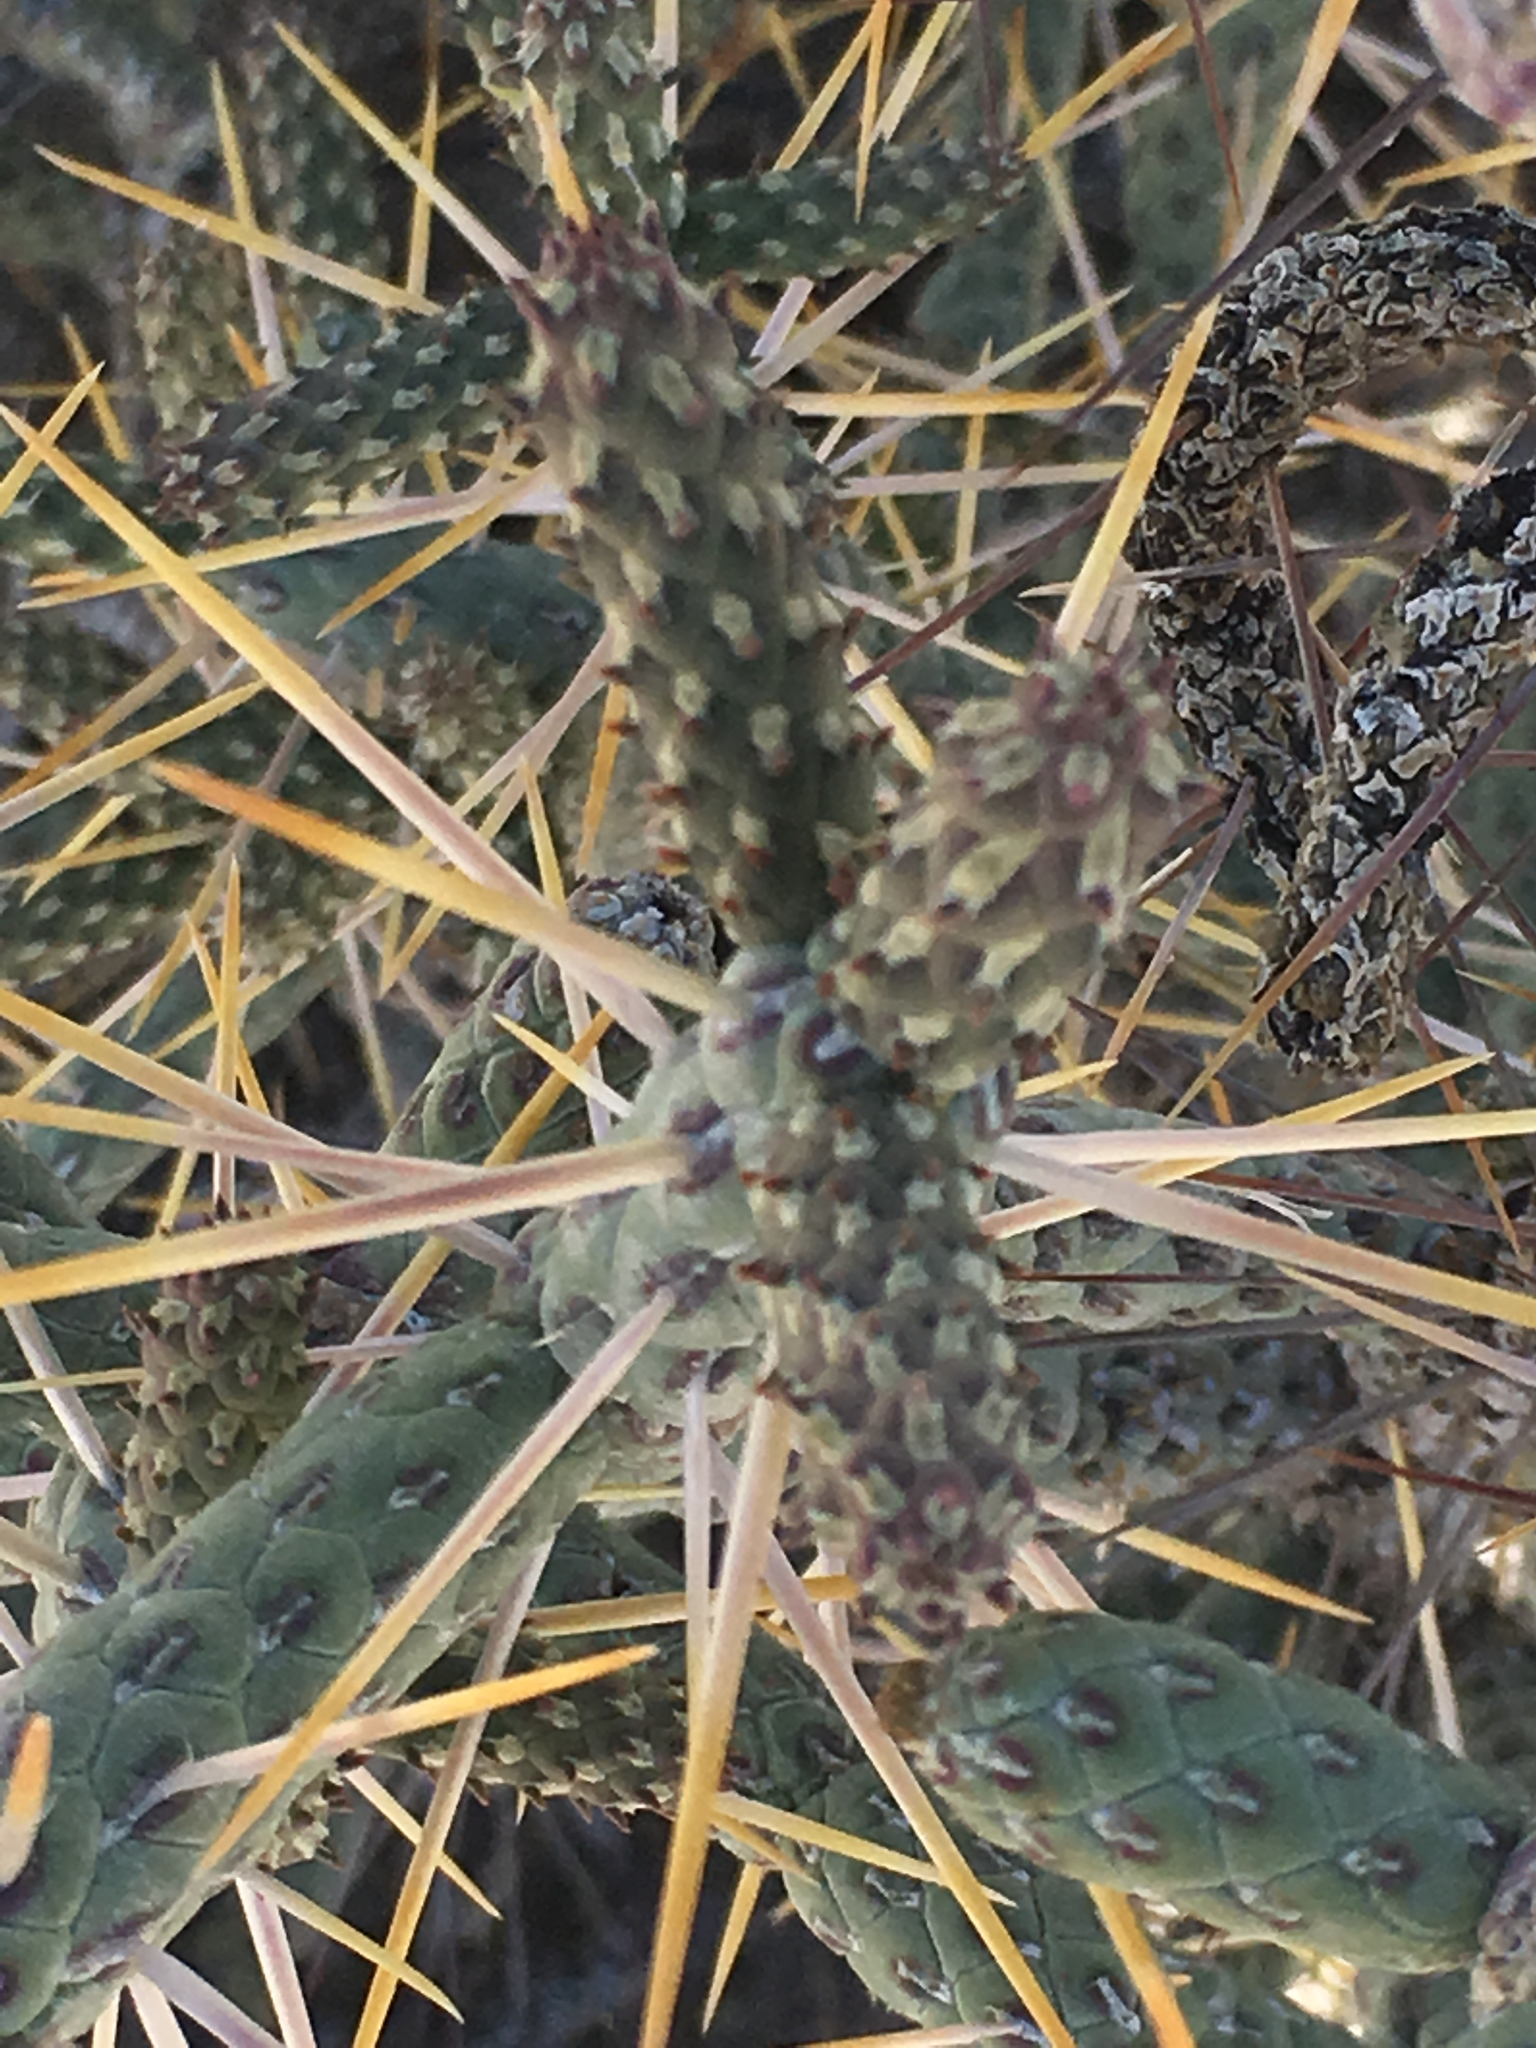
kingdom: Plantae
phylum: Tracheophyta
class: Magnoliopsida
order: Caryophyllales
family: Cactaceae
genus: Cylindropuntia
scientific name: Cylindropuntia ramosissima
